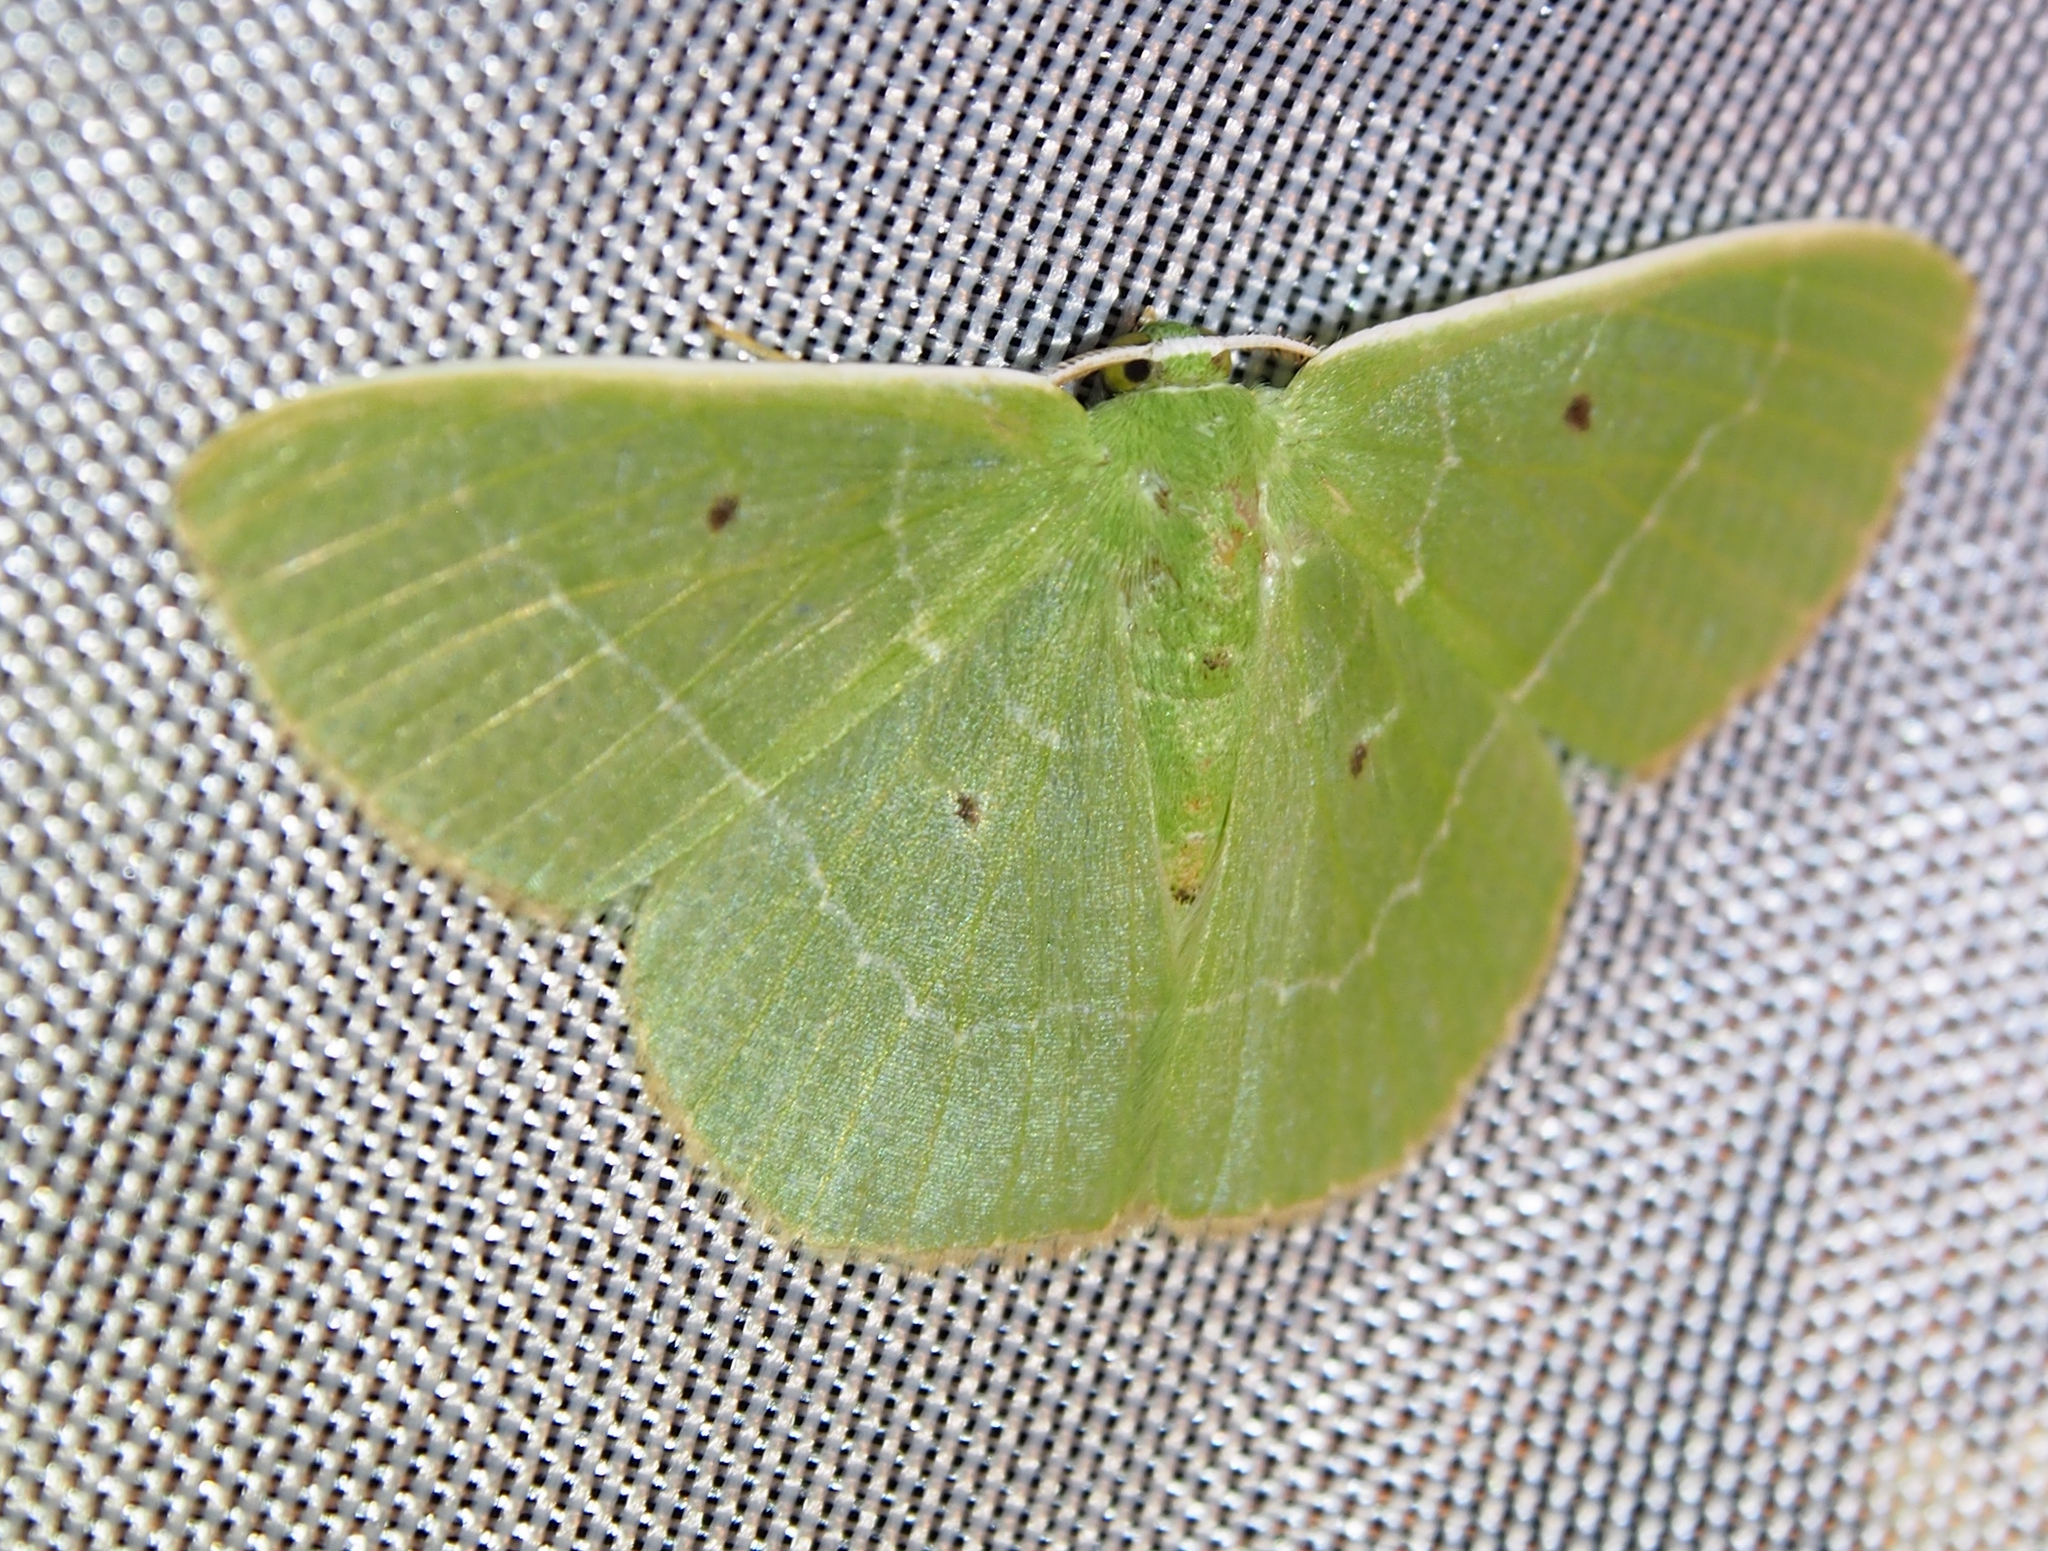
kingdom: Animalia
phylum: Arthropoda
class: Insecta
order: Lepidoptera
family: Geometridae
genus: Nemoria
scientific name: Nemoria remota
